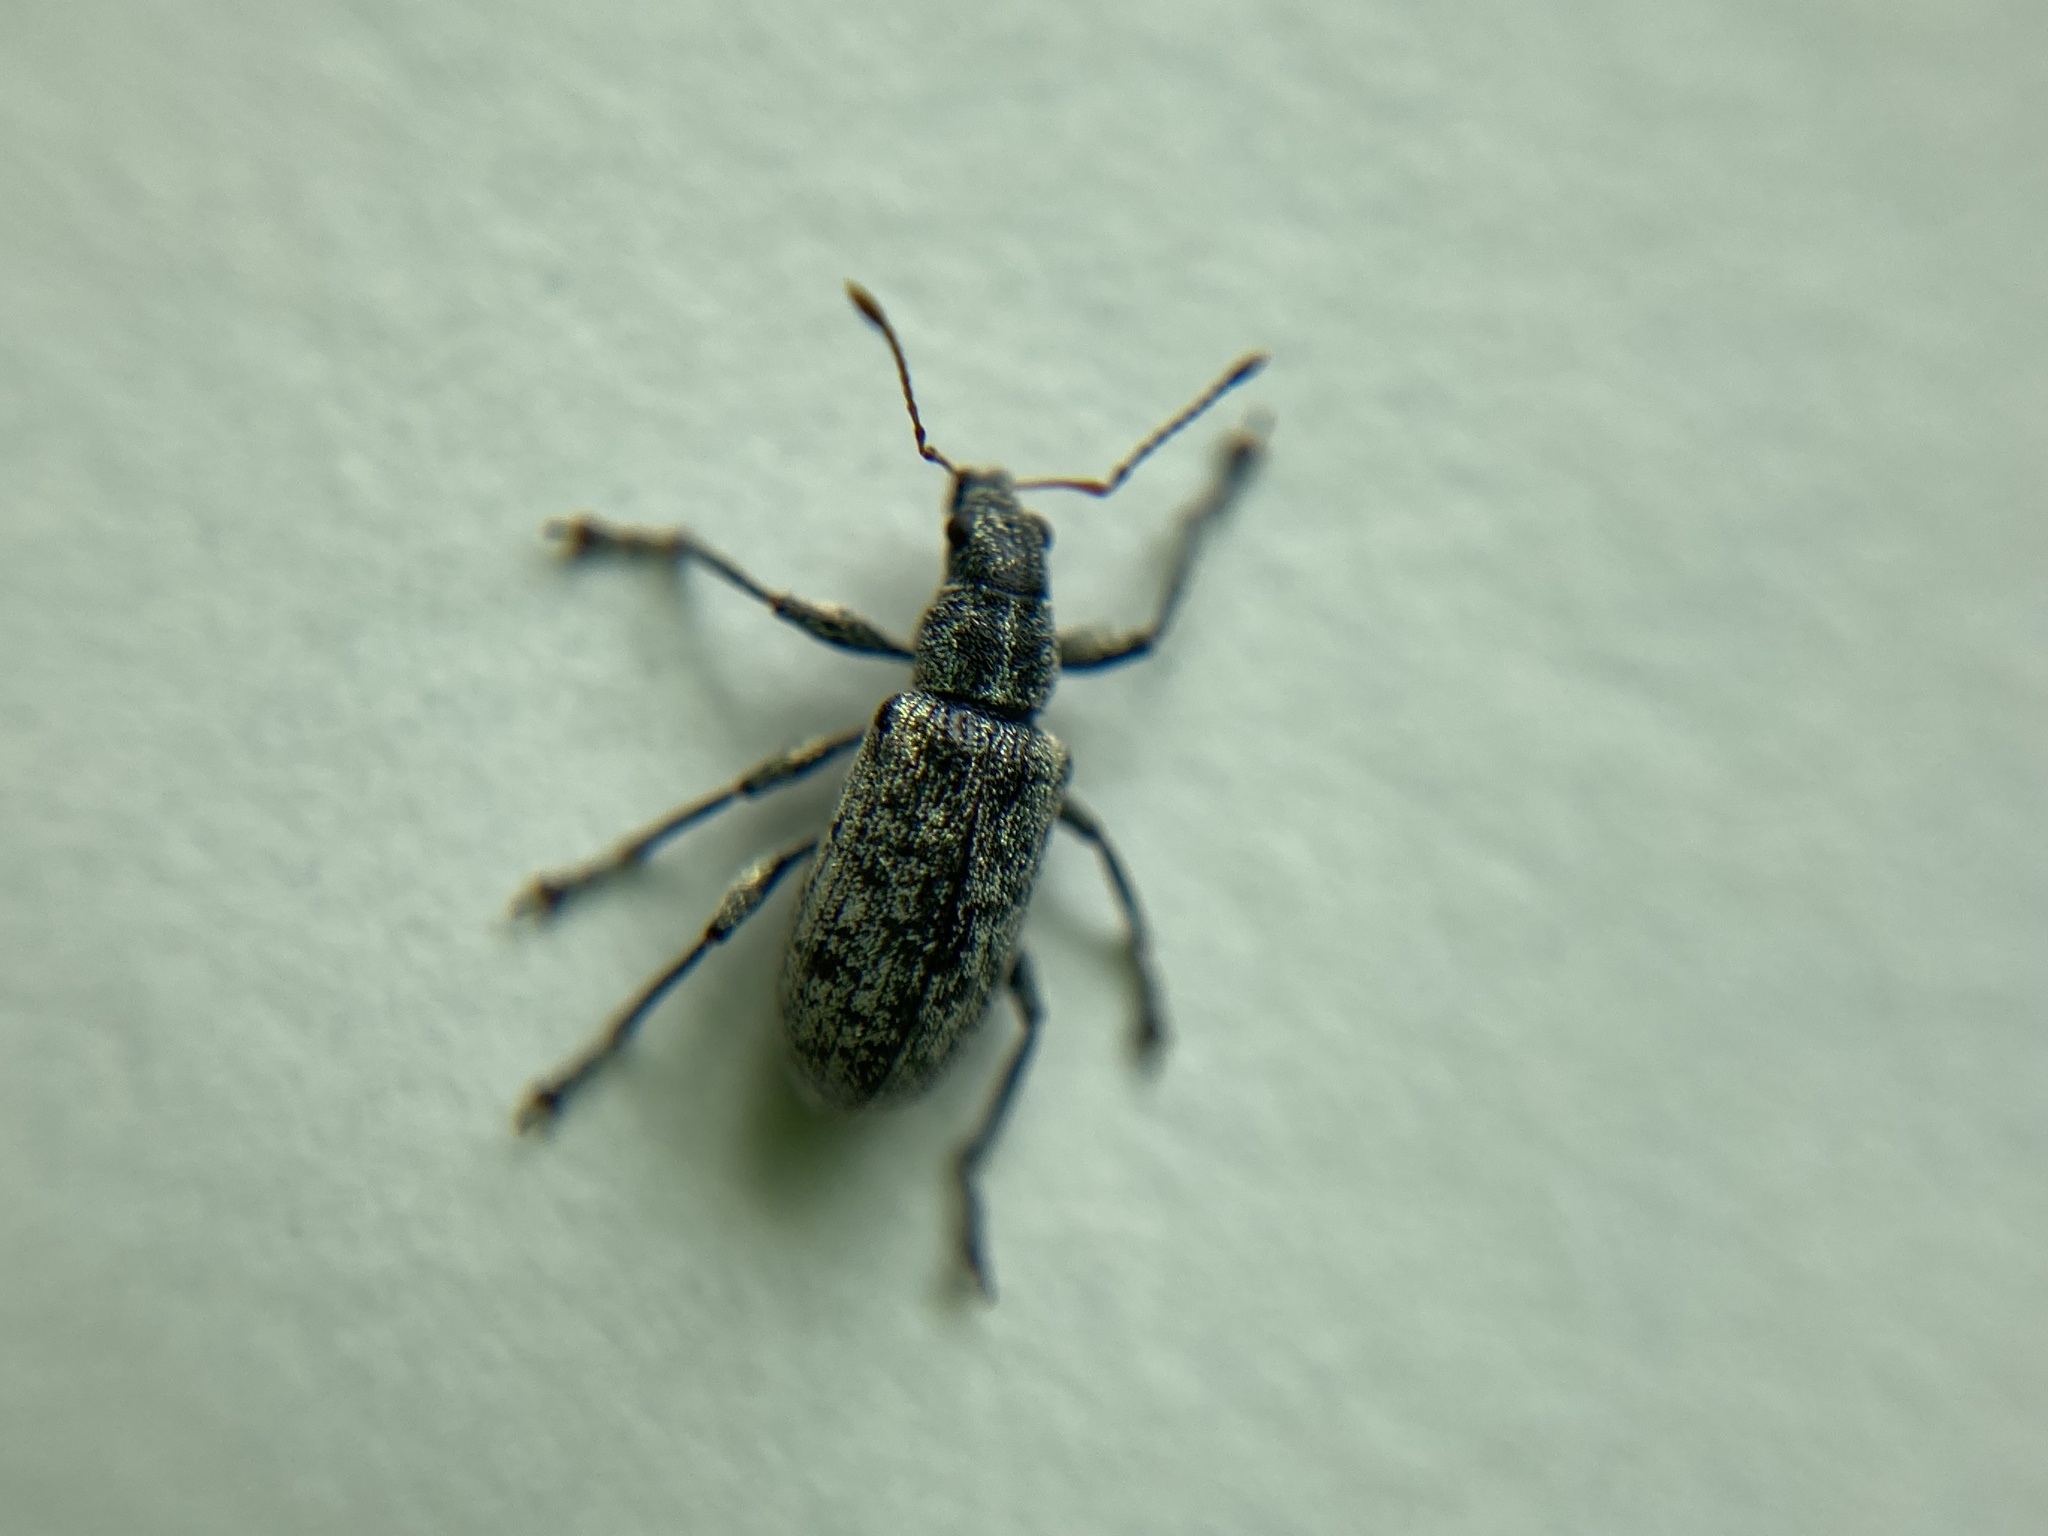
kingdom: Animalia
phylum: Arthropoda
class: Insecta
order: Coleoptera
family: Curculionidae
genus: Polydrusus
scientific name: Polydrusus cervinus
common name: Weevil
